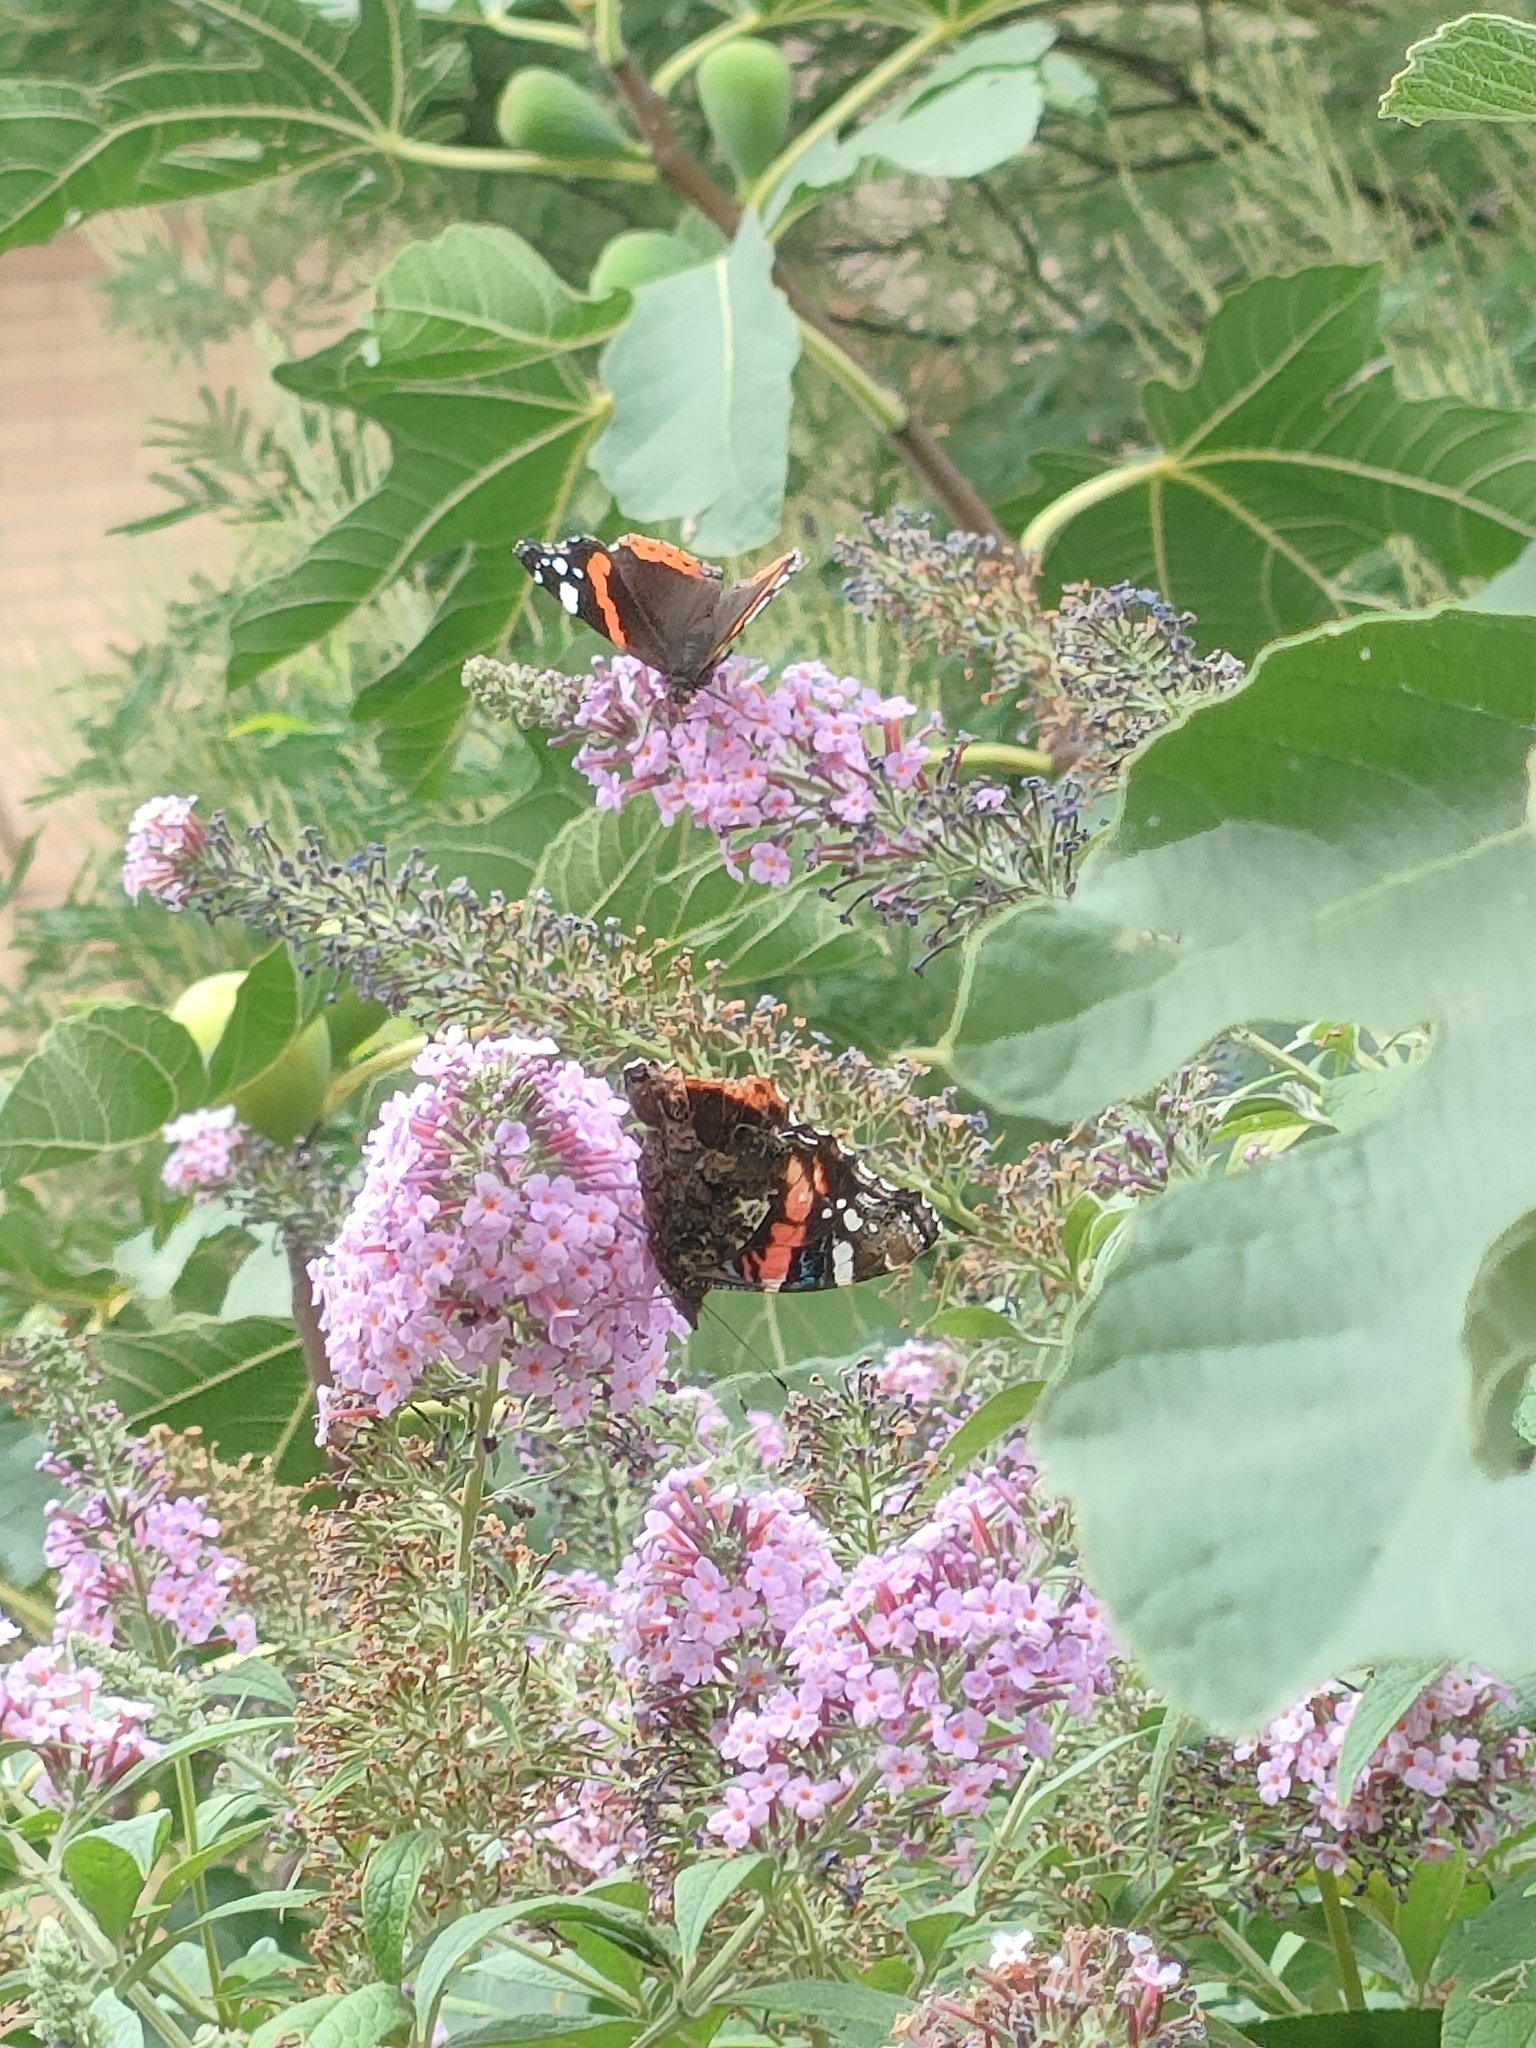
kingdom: Animalia
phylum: Arthropoda
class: Insecta
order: Lepidoptera
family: Nymphalidae
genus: Vanessa
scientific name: Vanessa atalanta
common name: Red admiral
